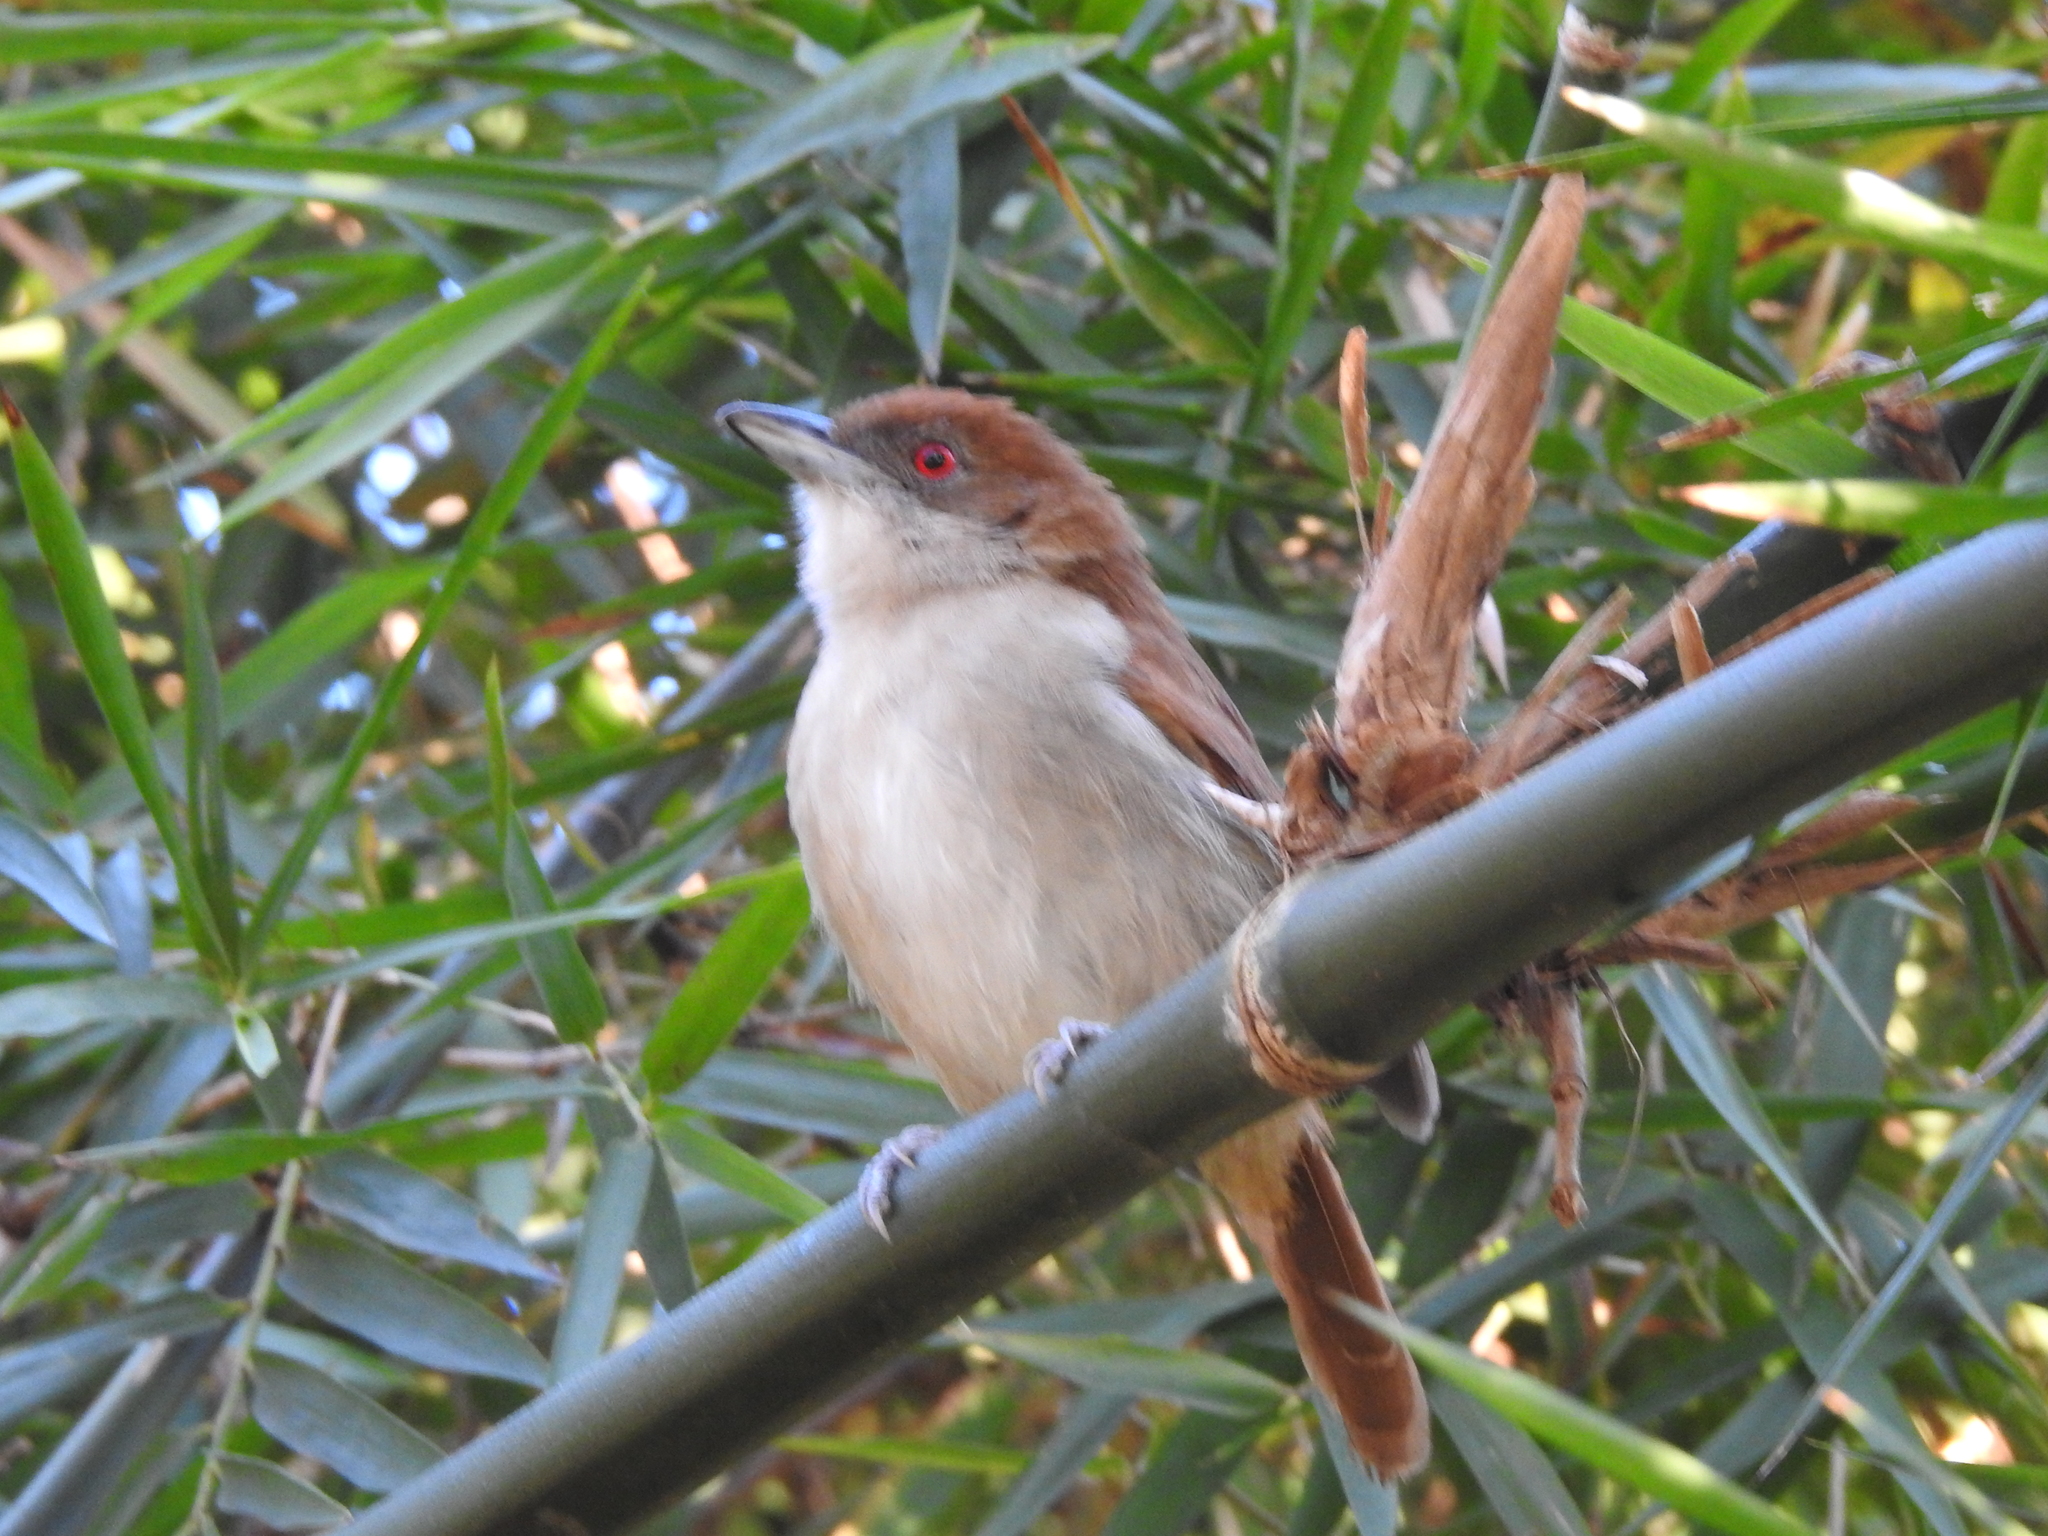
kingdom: Animalia
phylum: Chordata
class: Aves
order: Passeriformes
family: Thamnophilidae
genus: Taraba
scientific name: Taraba major
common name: Great antshrike
